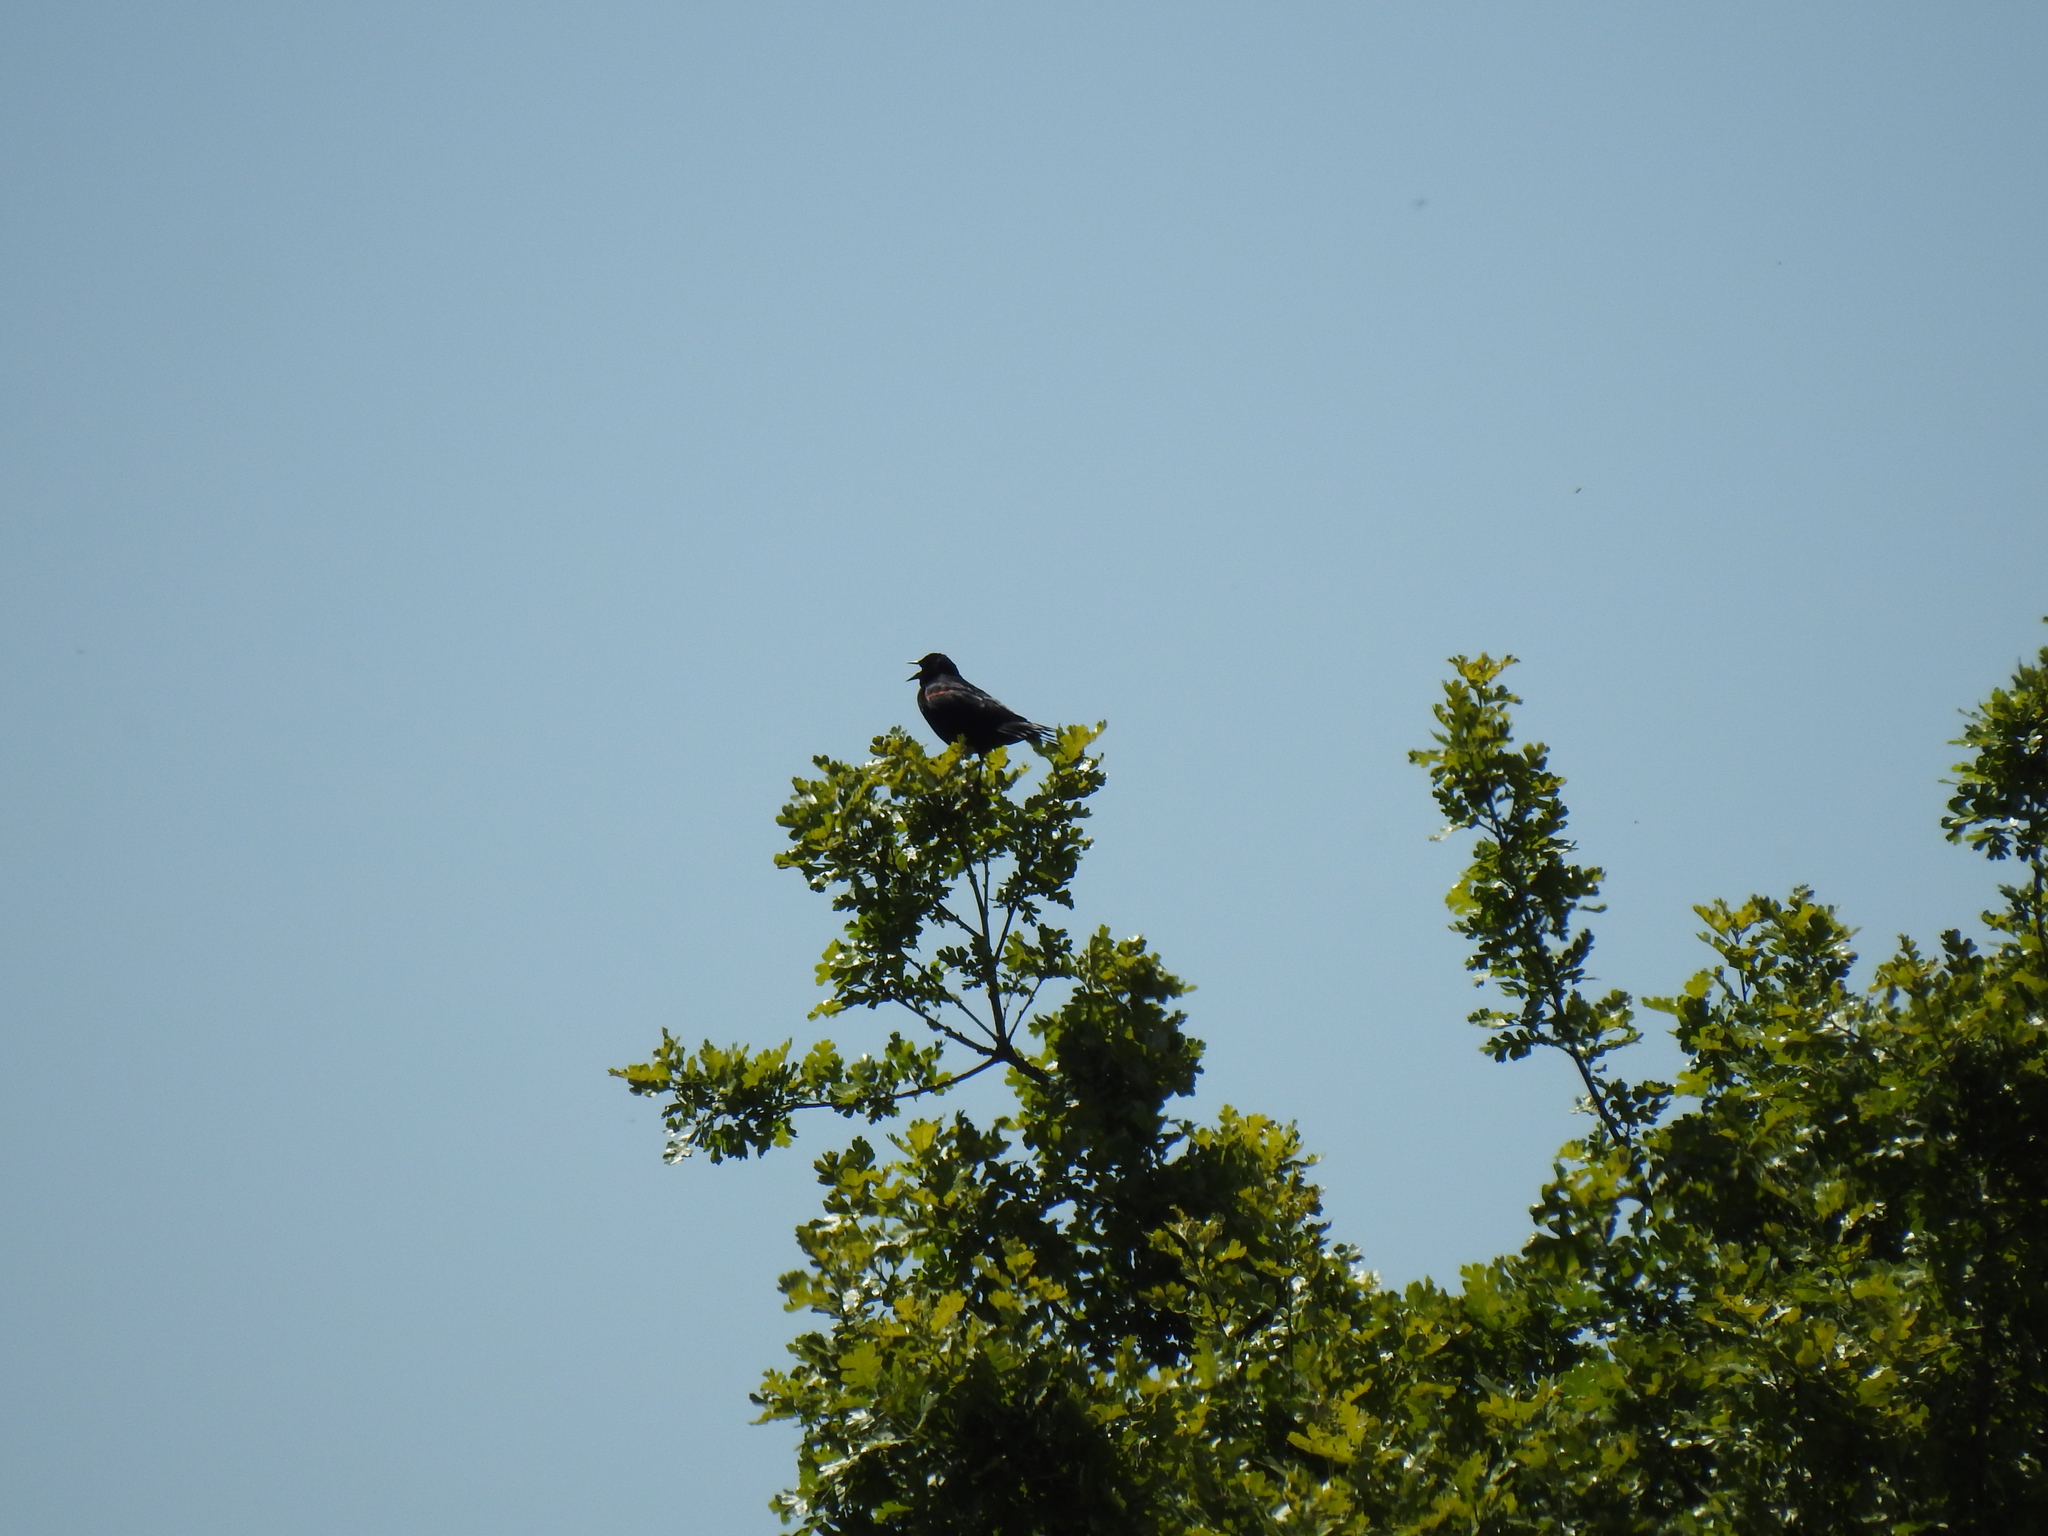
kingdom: Animalia
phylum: Chordata
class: Aves
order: Passeriformes
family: Icteridae
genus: Agelaius
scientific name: Agelaius phoeniceus
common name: Red-winged blackbird
